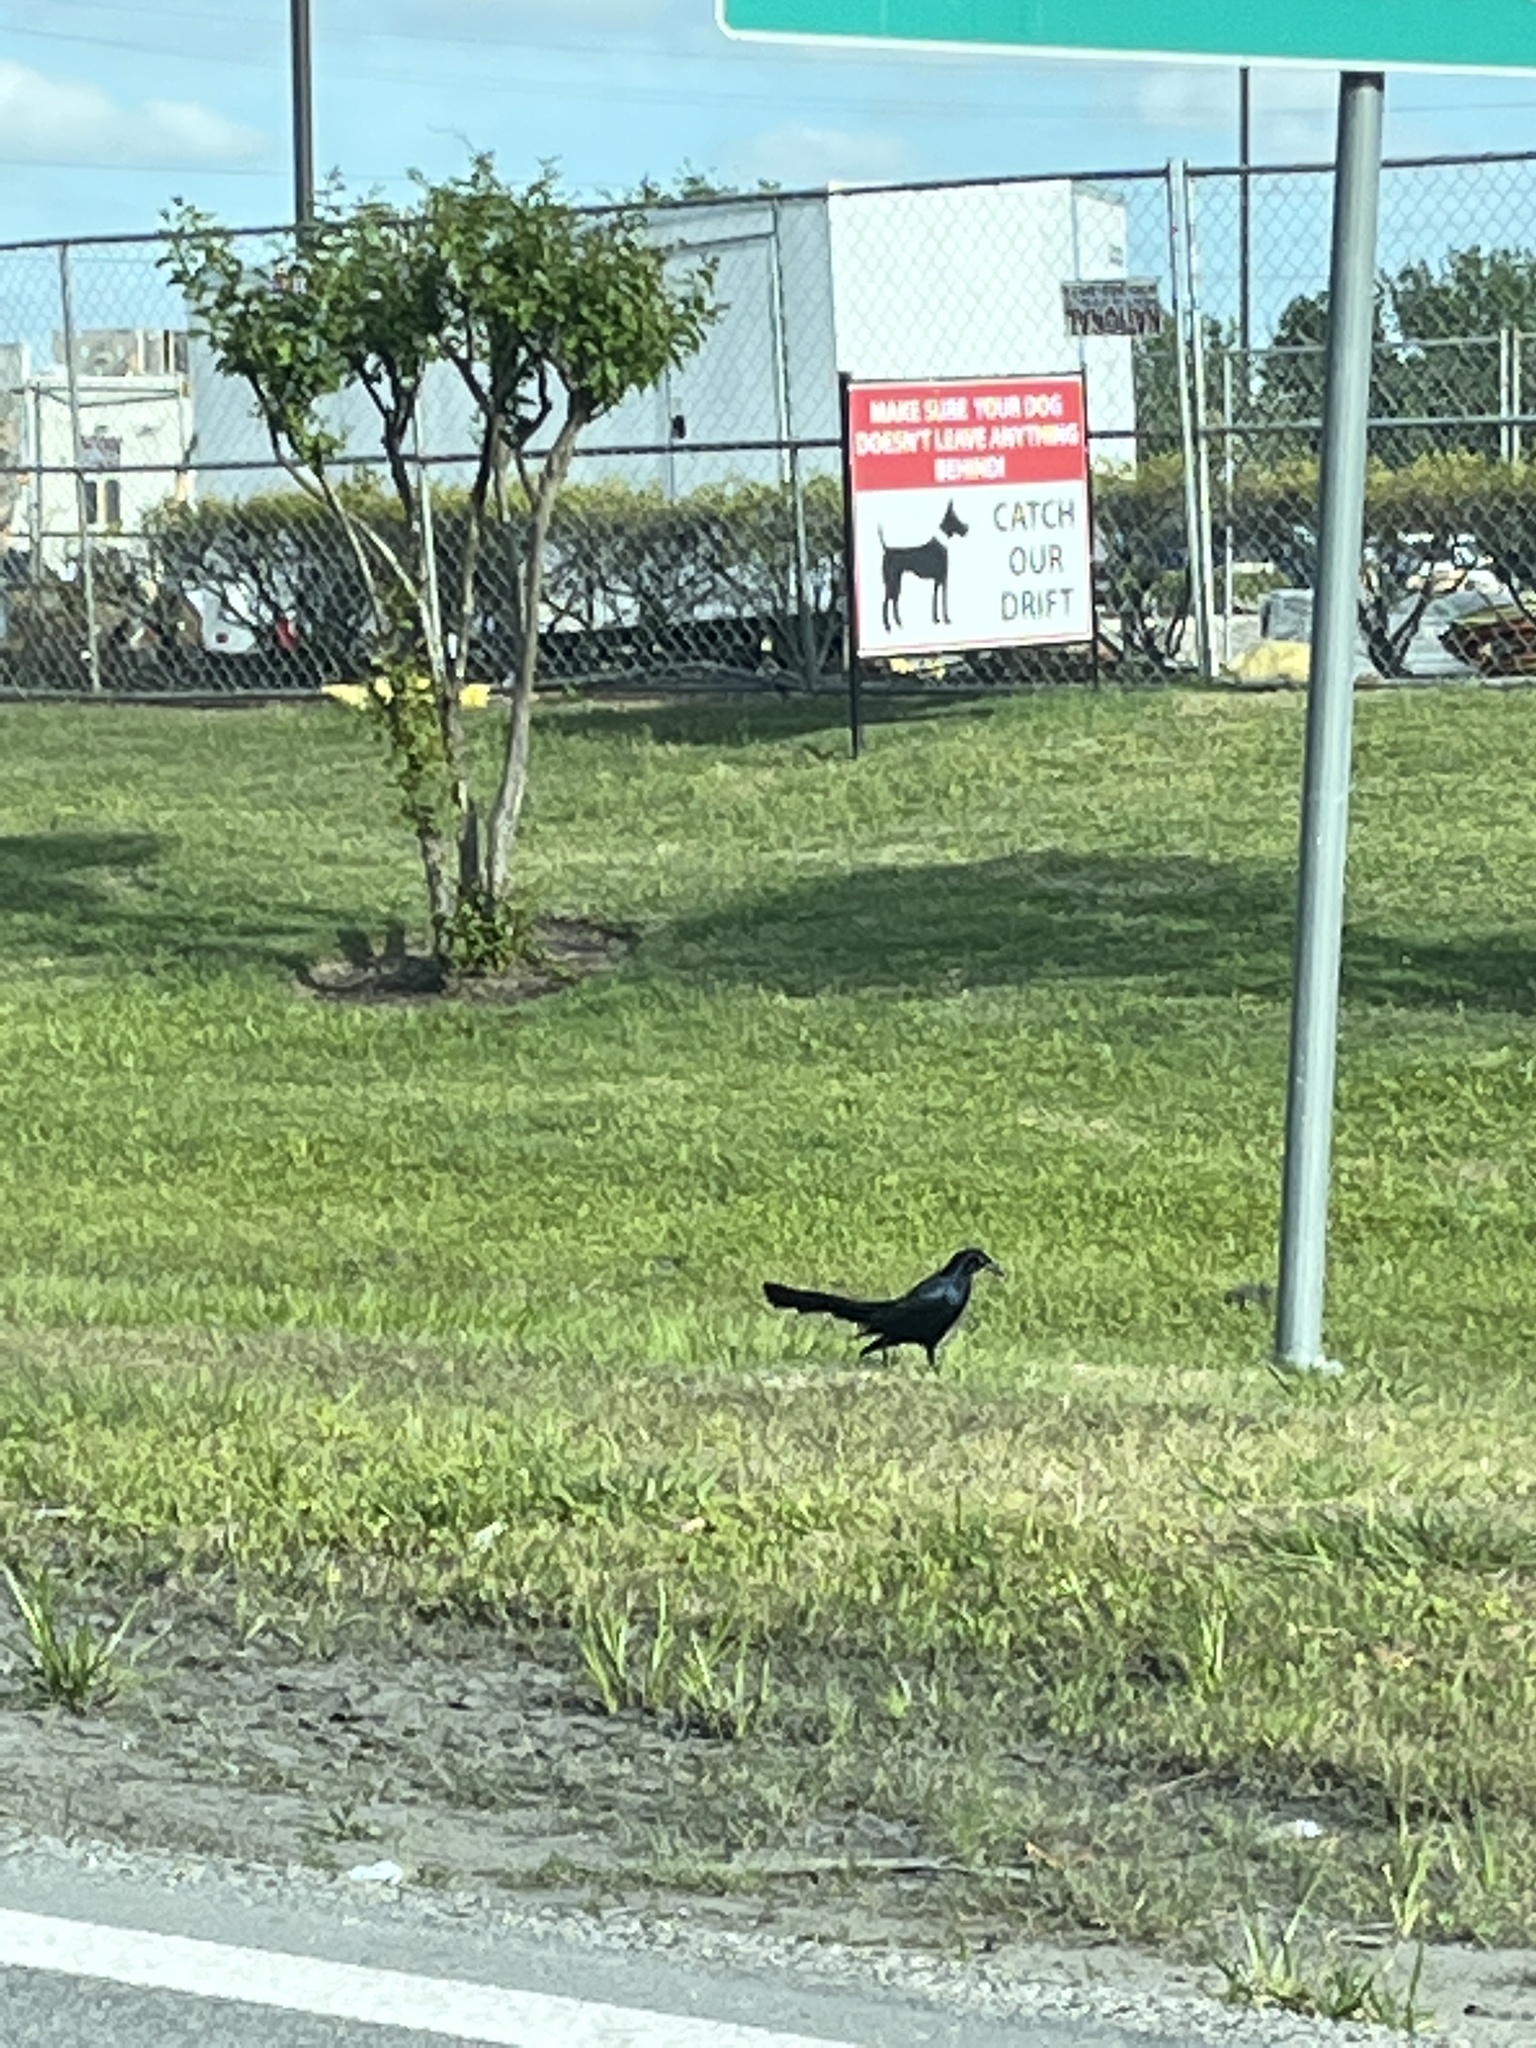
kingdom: Animalia
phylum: Chordata
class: Aves
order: Passeriformes
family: Icteridae
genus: Quiscalus
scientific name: Quiscalus mexicanus
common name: Great-tailed grackle
